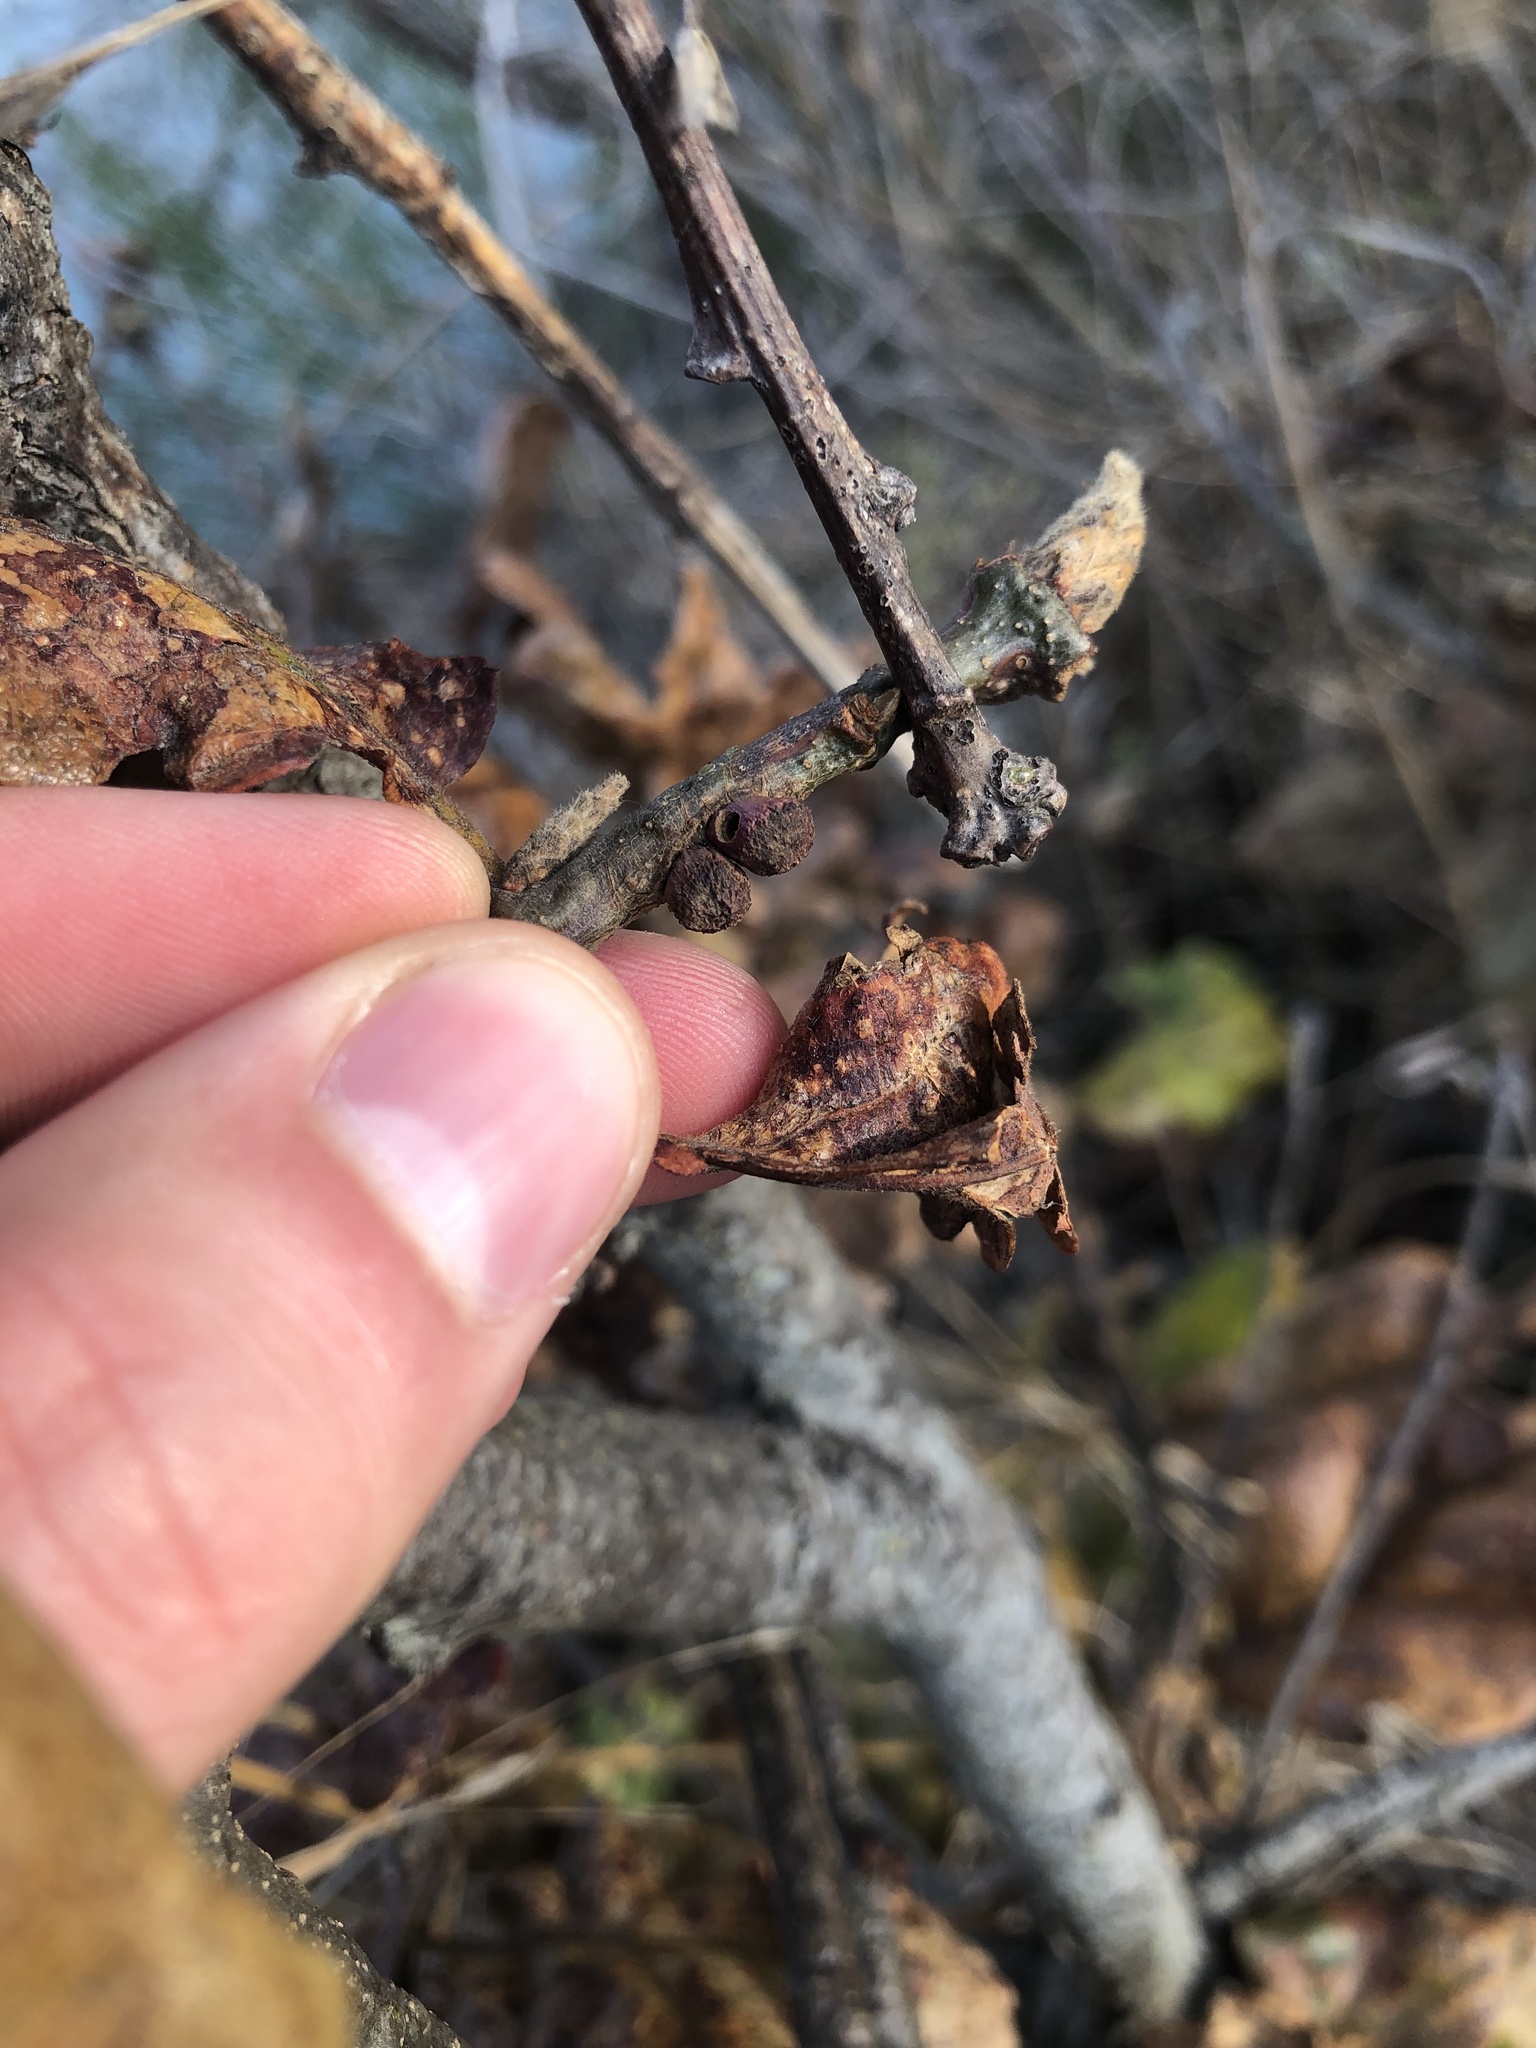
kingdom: Animalia
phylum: Arthropoda
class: Insecta
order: Hymenoptera
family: Cynipidae
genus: Disholcaspis
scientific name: Disholcaspis
